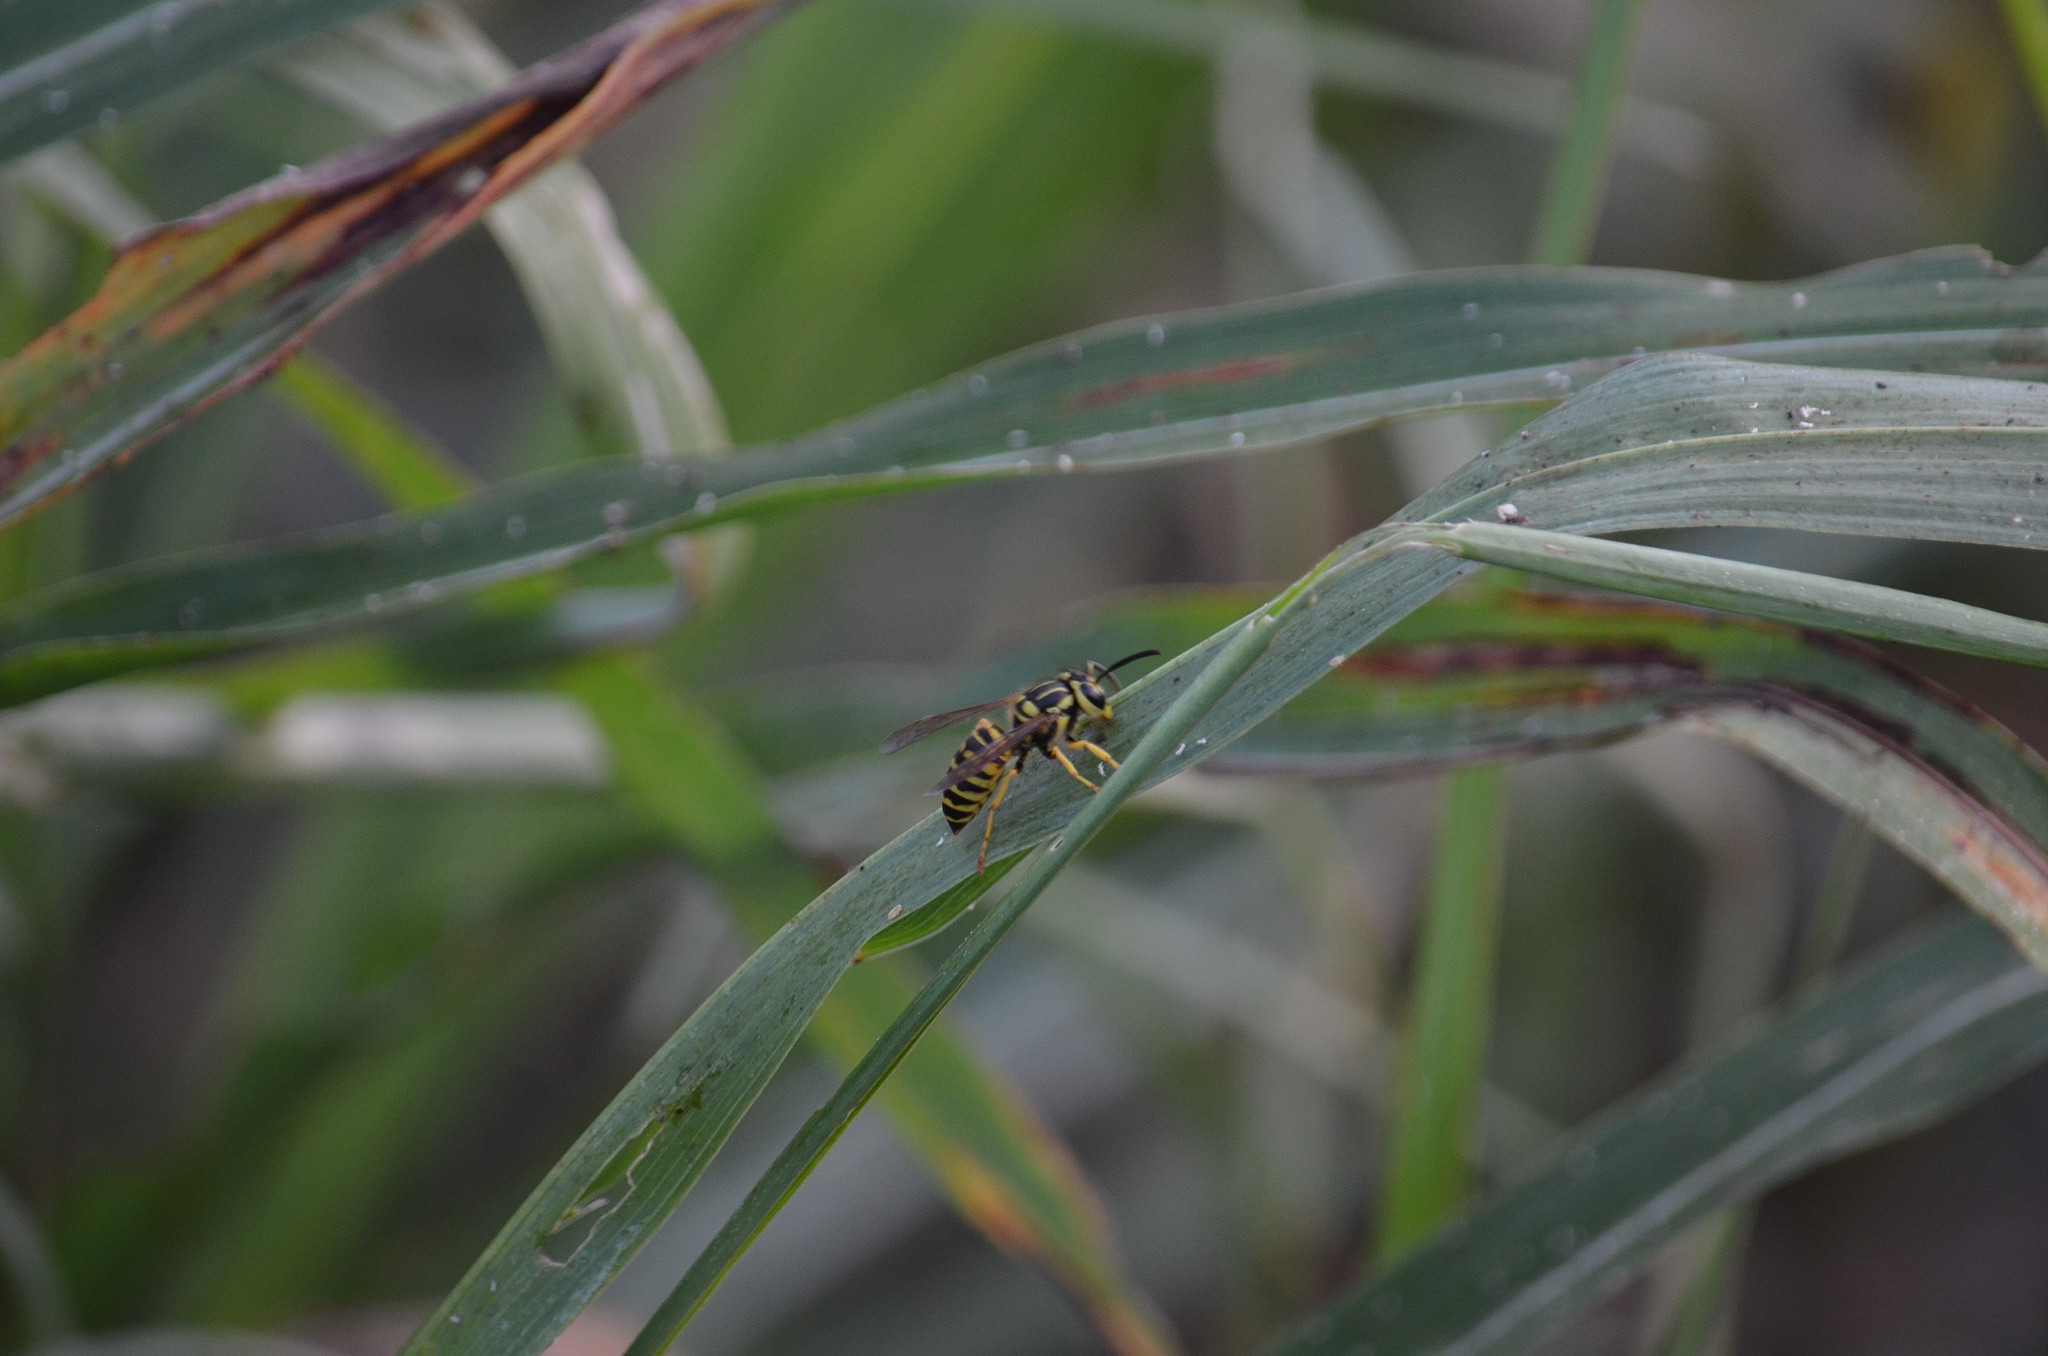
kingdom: Animalia
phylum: Arthropoda
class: Insecta
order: Hymenoptera
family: Vespidae
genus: Vespula
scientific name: Vespula squamosa
